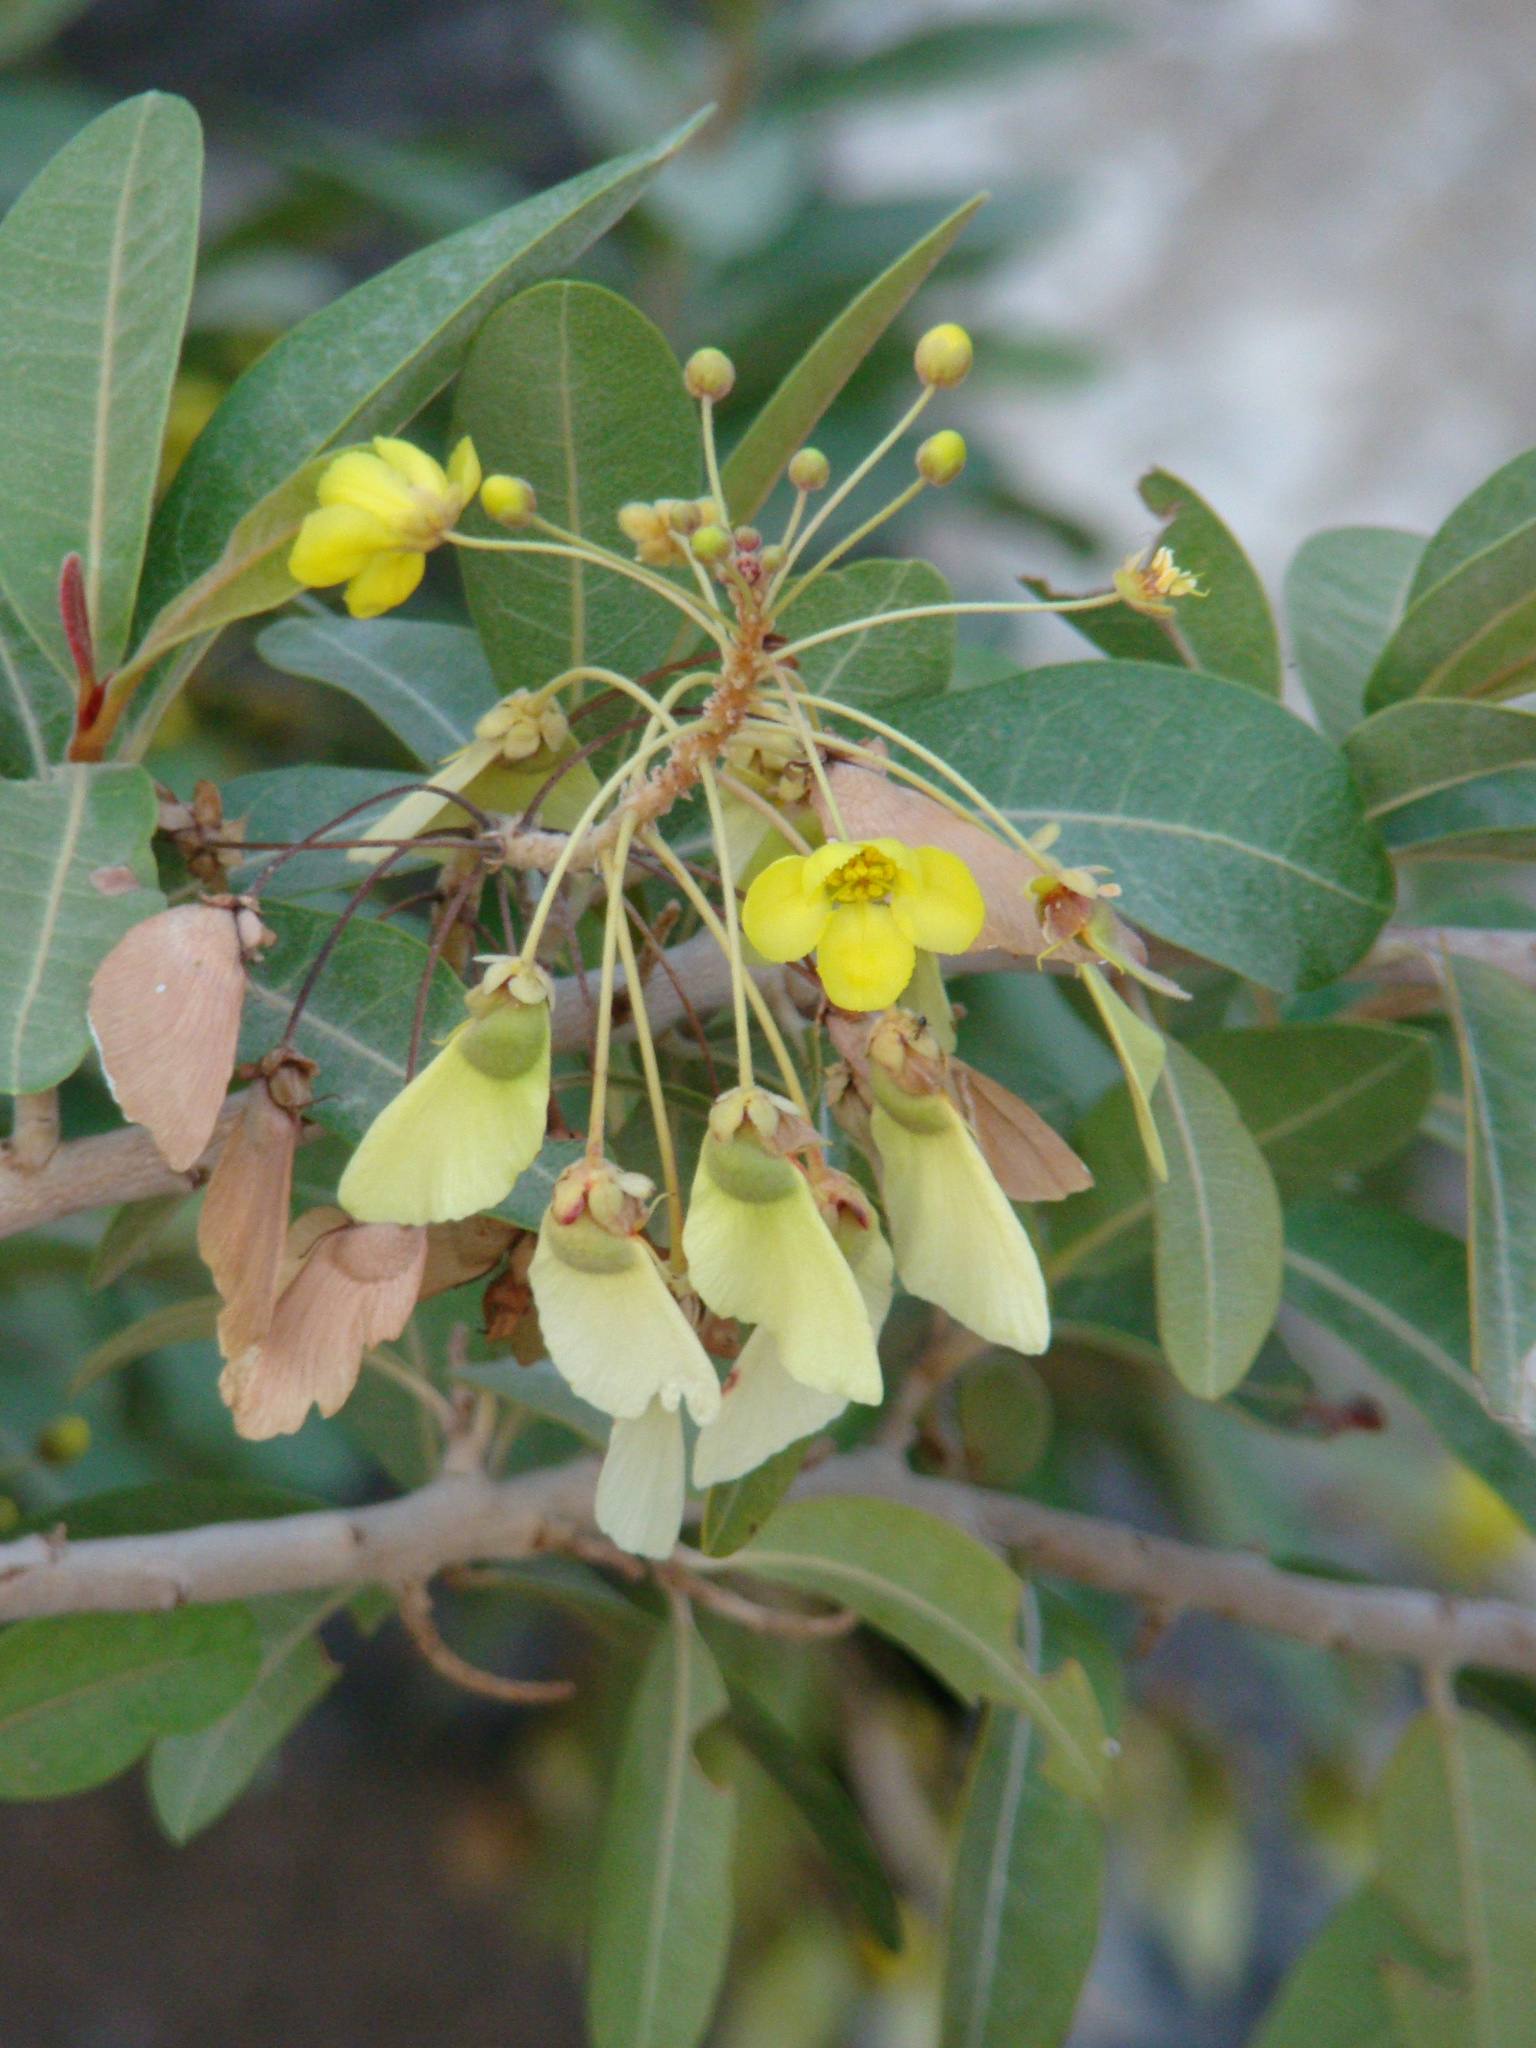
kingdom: Plantae
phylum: Tracheophyta
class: Magnoliopsida
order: Malpighiales
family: Malpighiaceae
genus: Acridocarpus
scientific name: Acridocarpus orientalis
